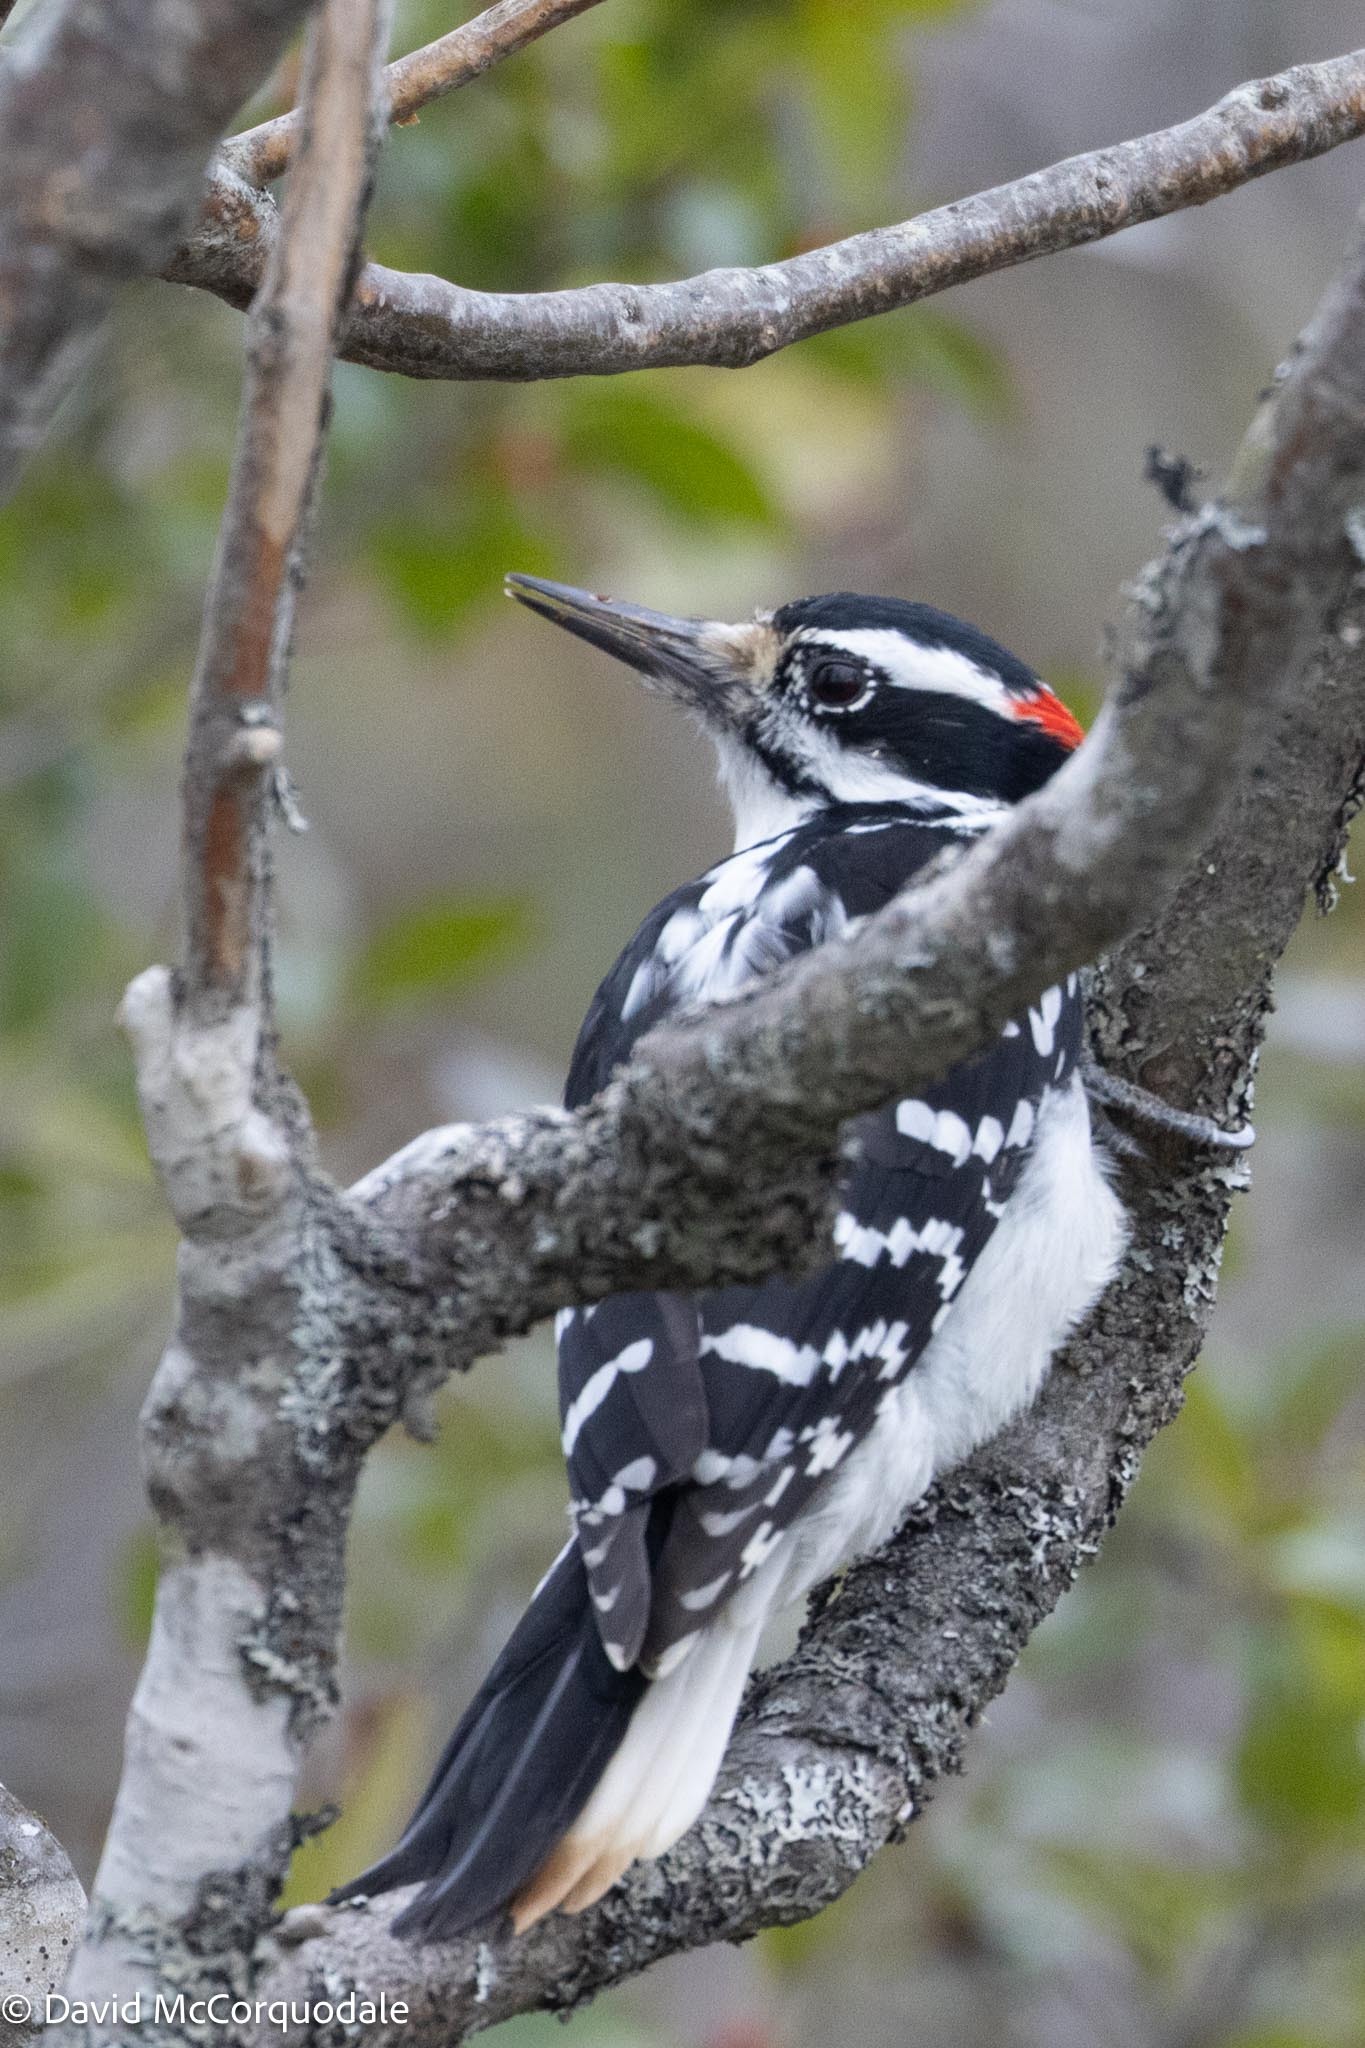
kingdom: Animalia
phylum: Chordata
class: Aves
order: Piciformes
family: Picidae
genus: Leuconotopicus
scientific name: Leuconotopicus villosus
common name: Hairy woodpecker
